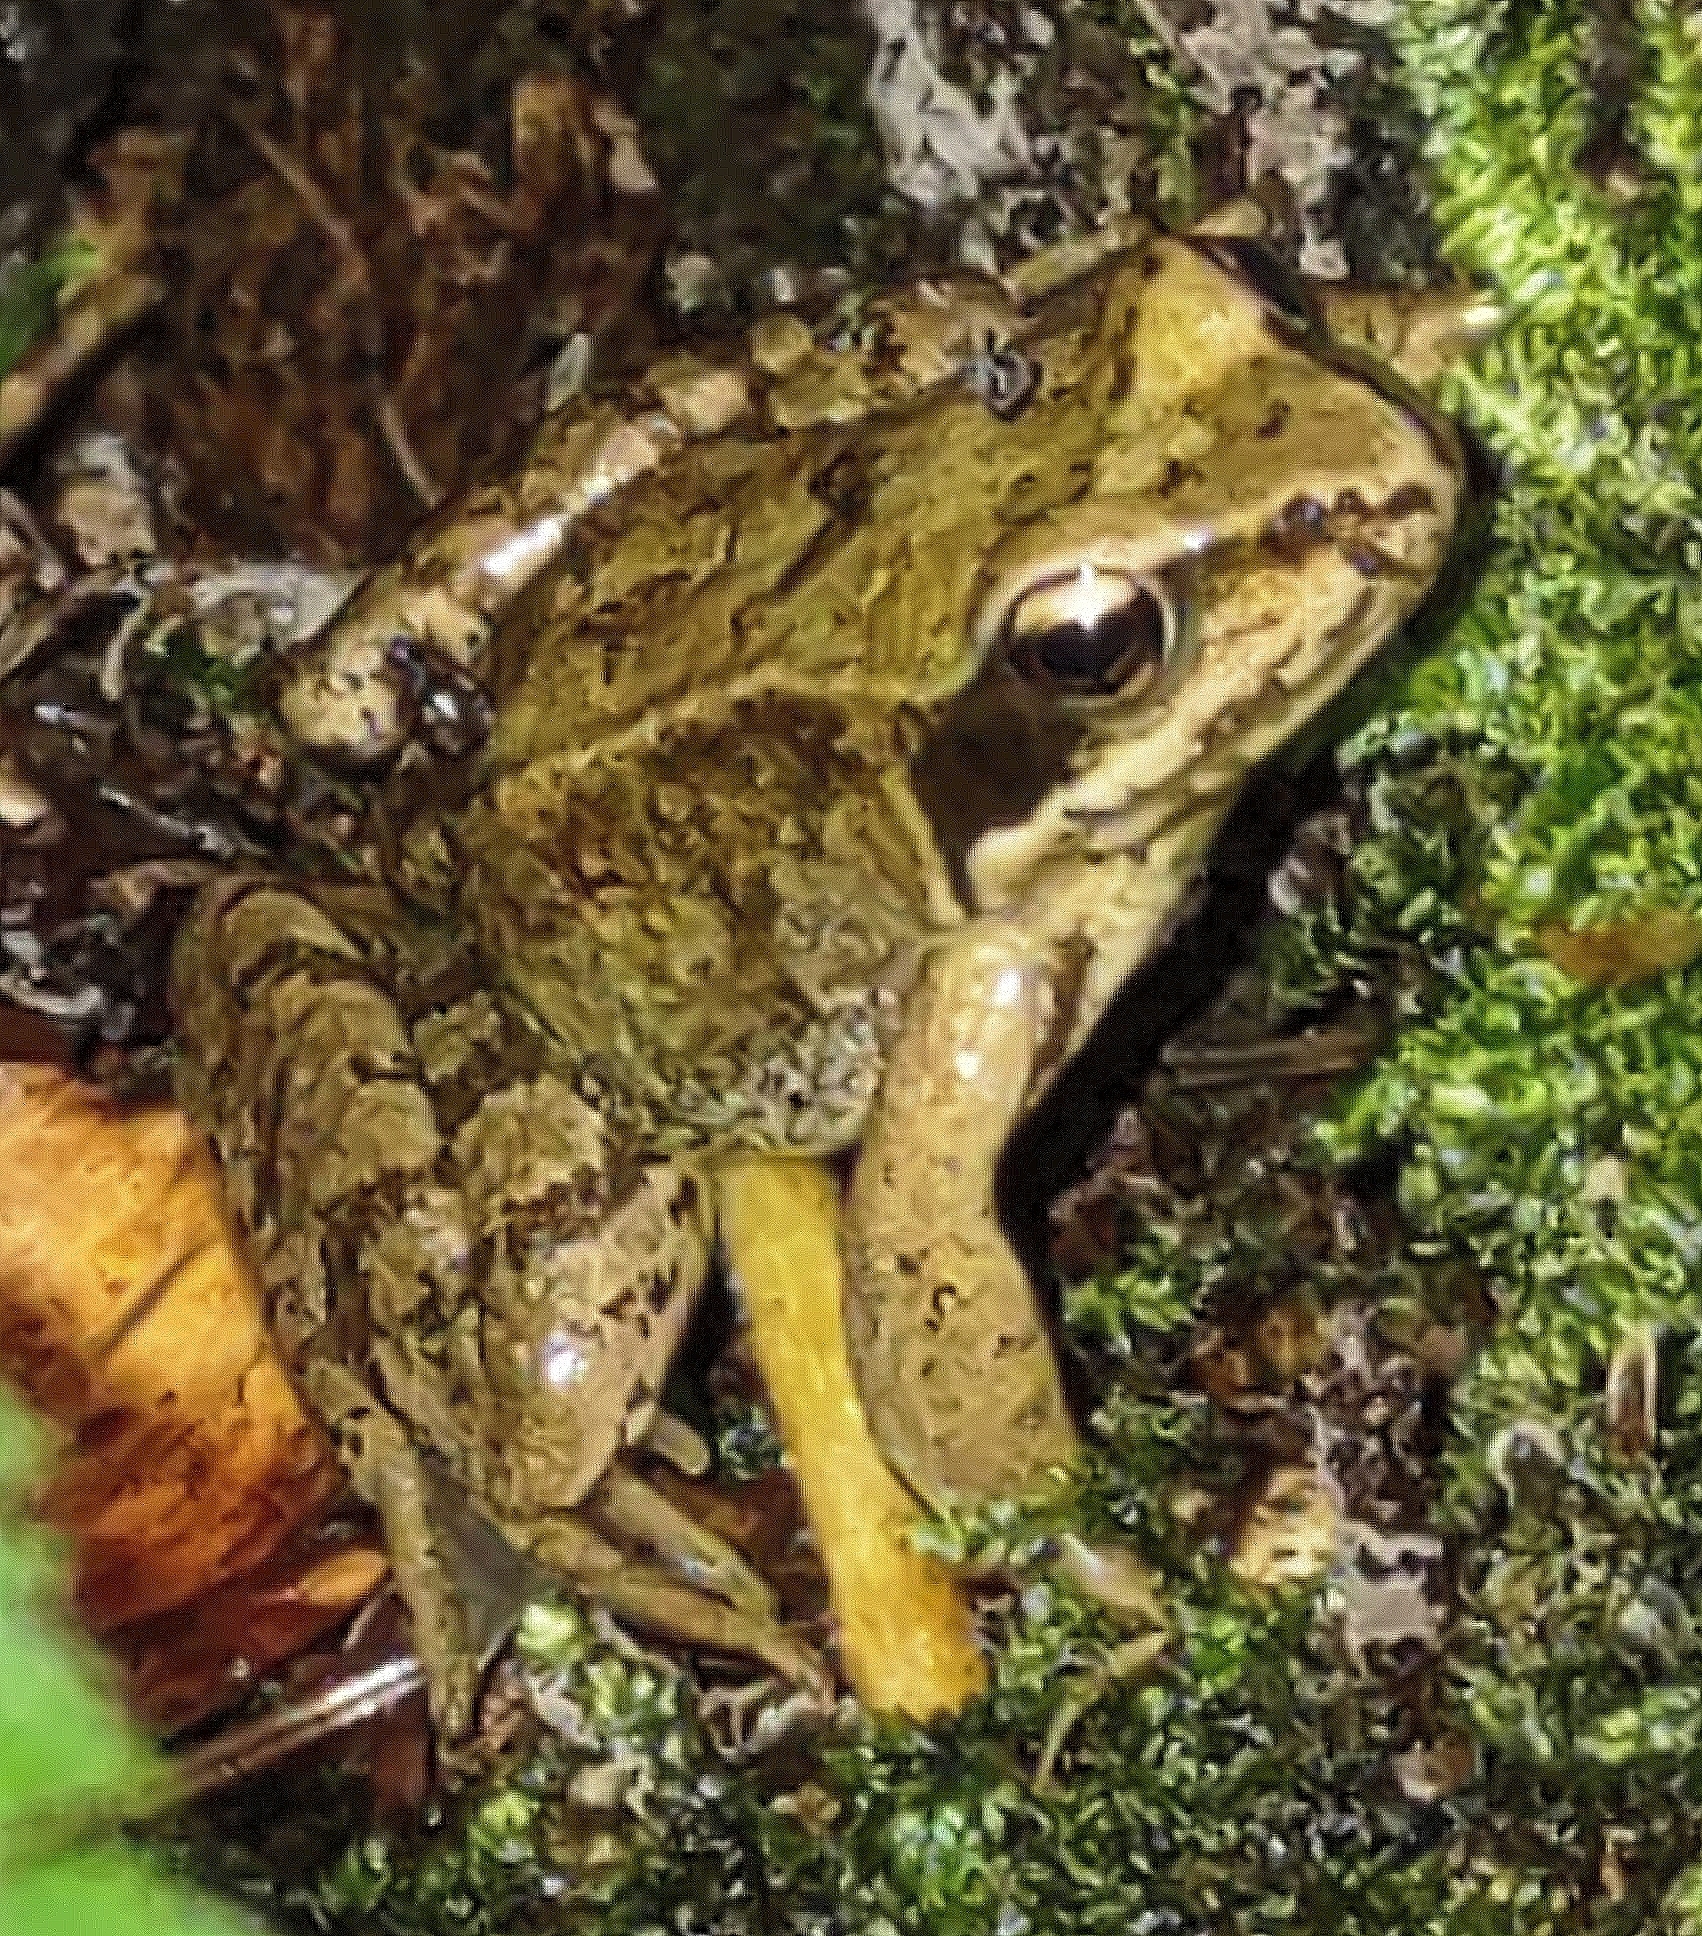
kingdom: Animalia
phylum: Chordata
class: Amphibia
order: Anura
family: Ranidae
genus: Rana
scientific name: Rana temporaria
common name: Common frog
